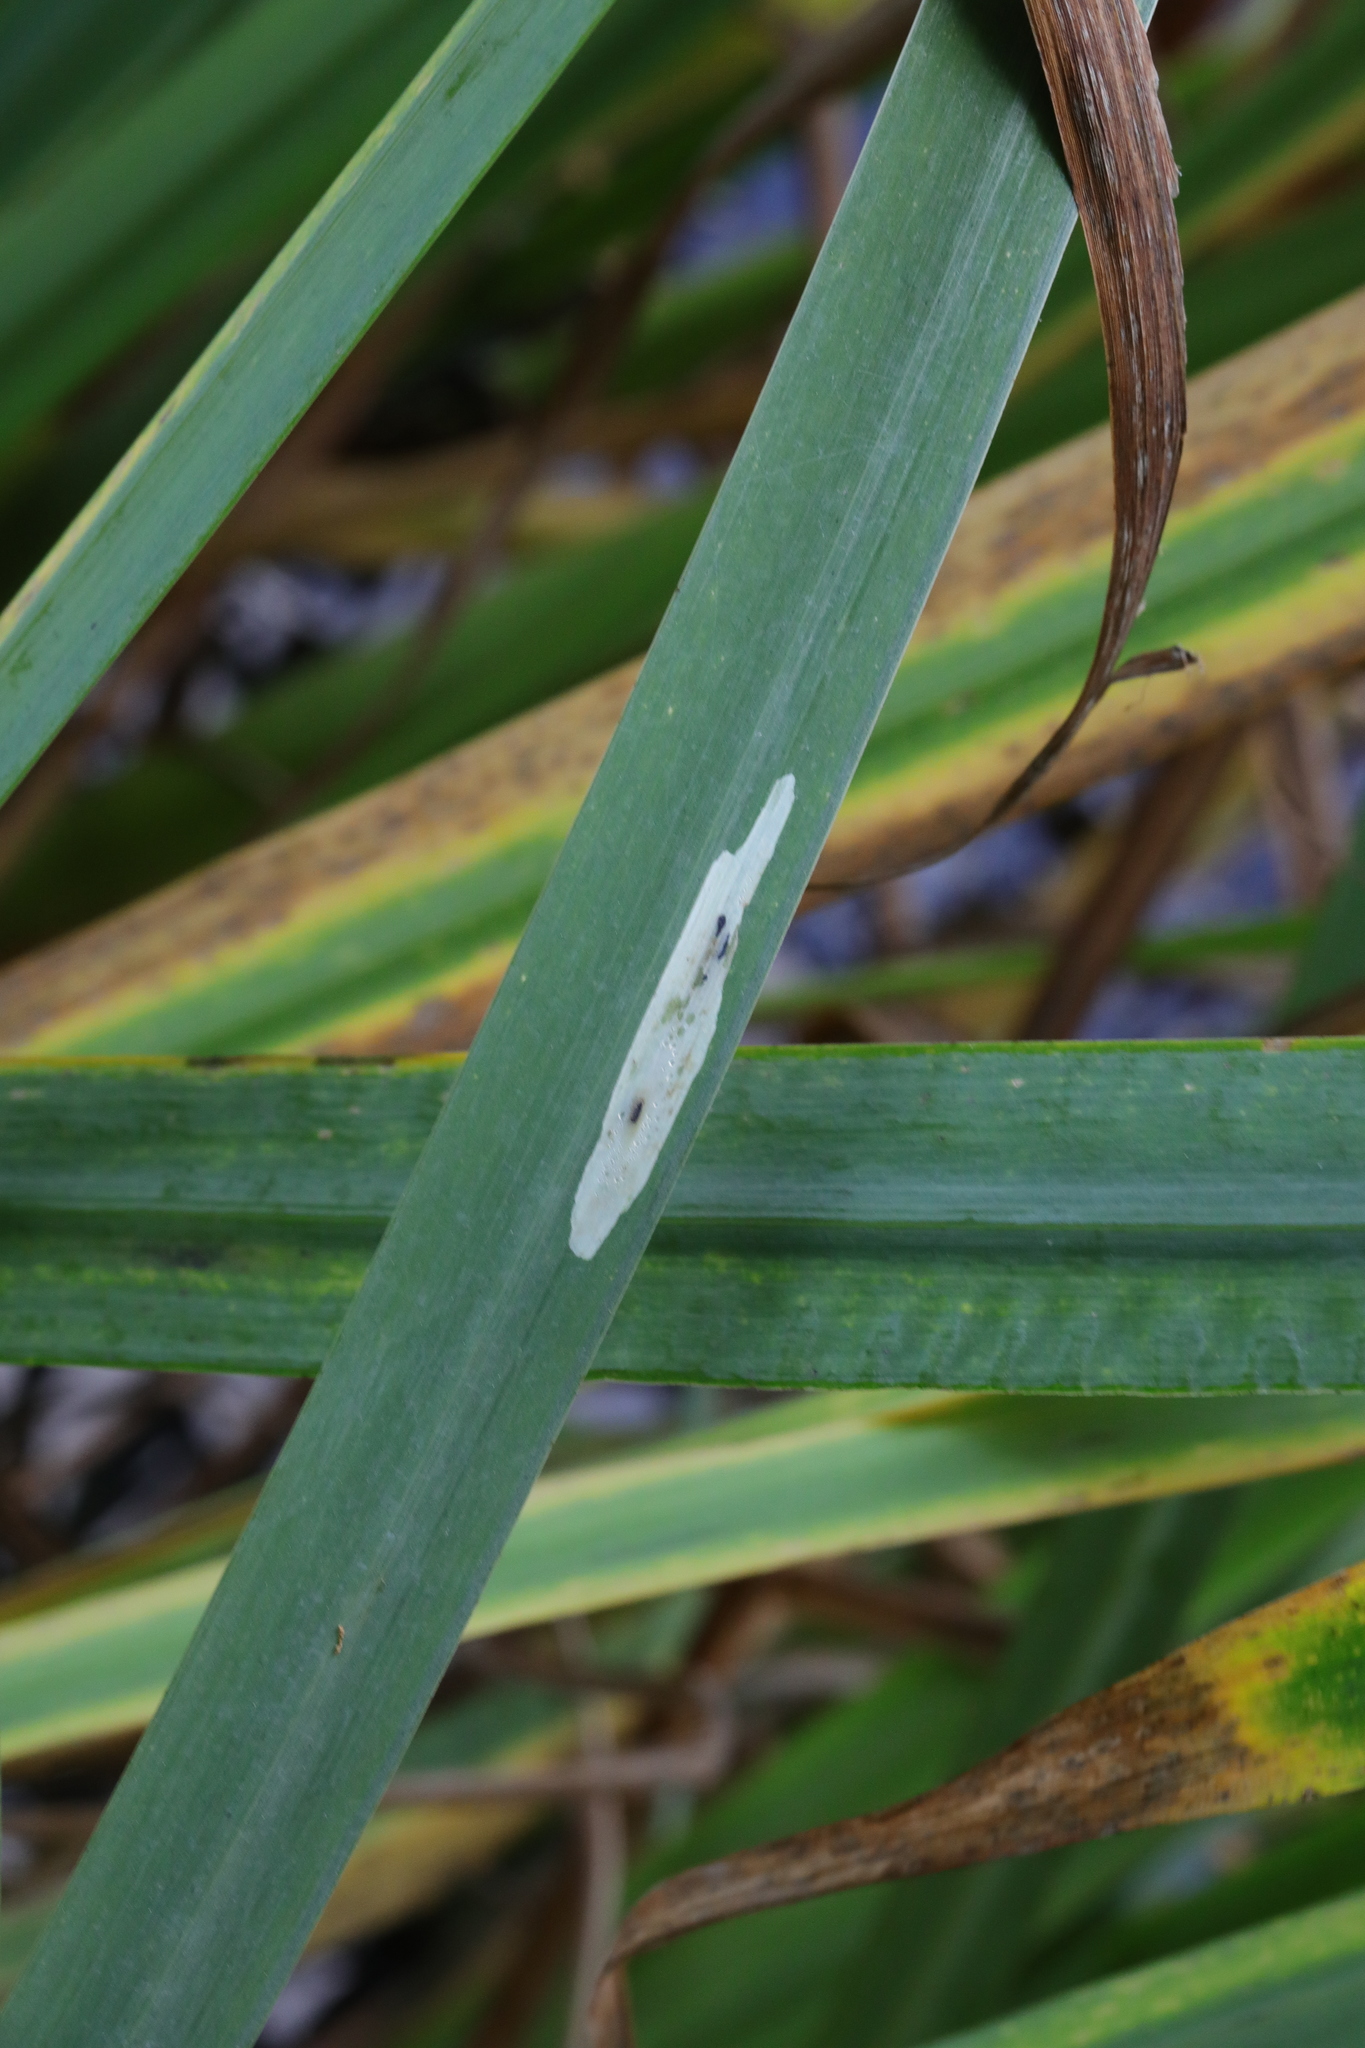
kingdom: Animalia
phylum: Arthropoda
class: Insecta
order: Diptera
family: Agromyzidae
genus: Cerodontha
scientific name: Cerodontha ircos
